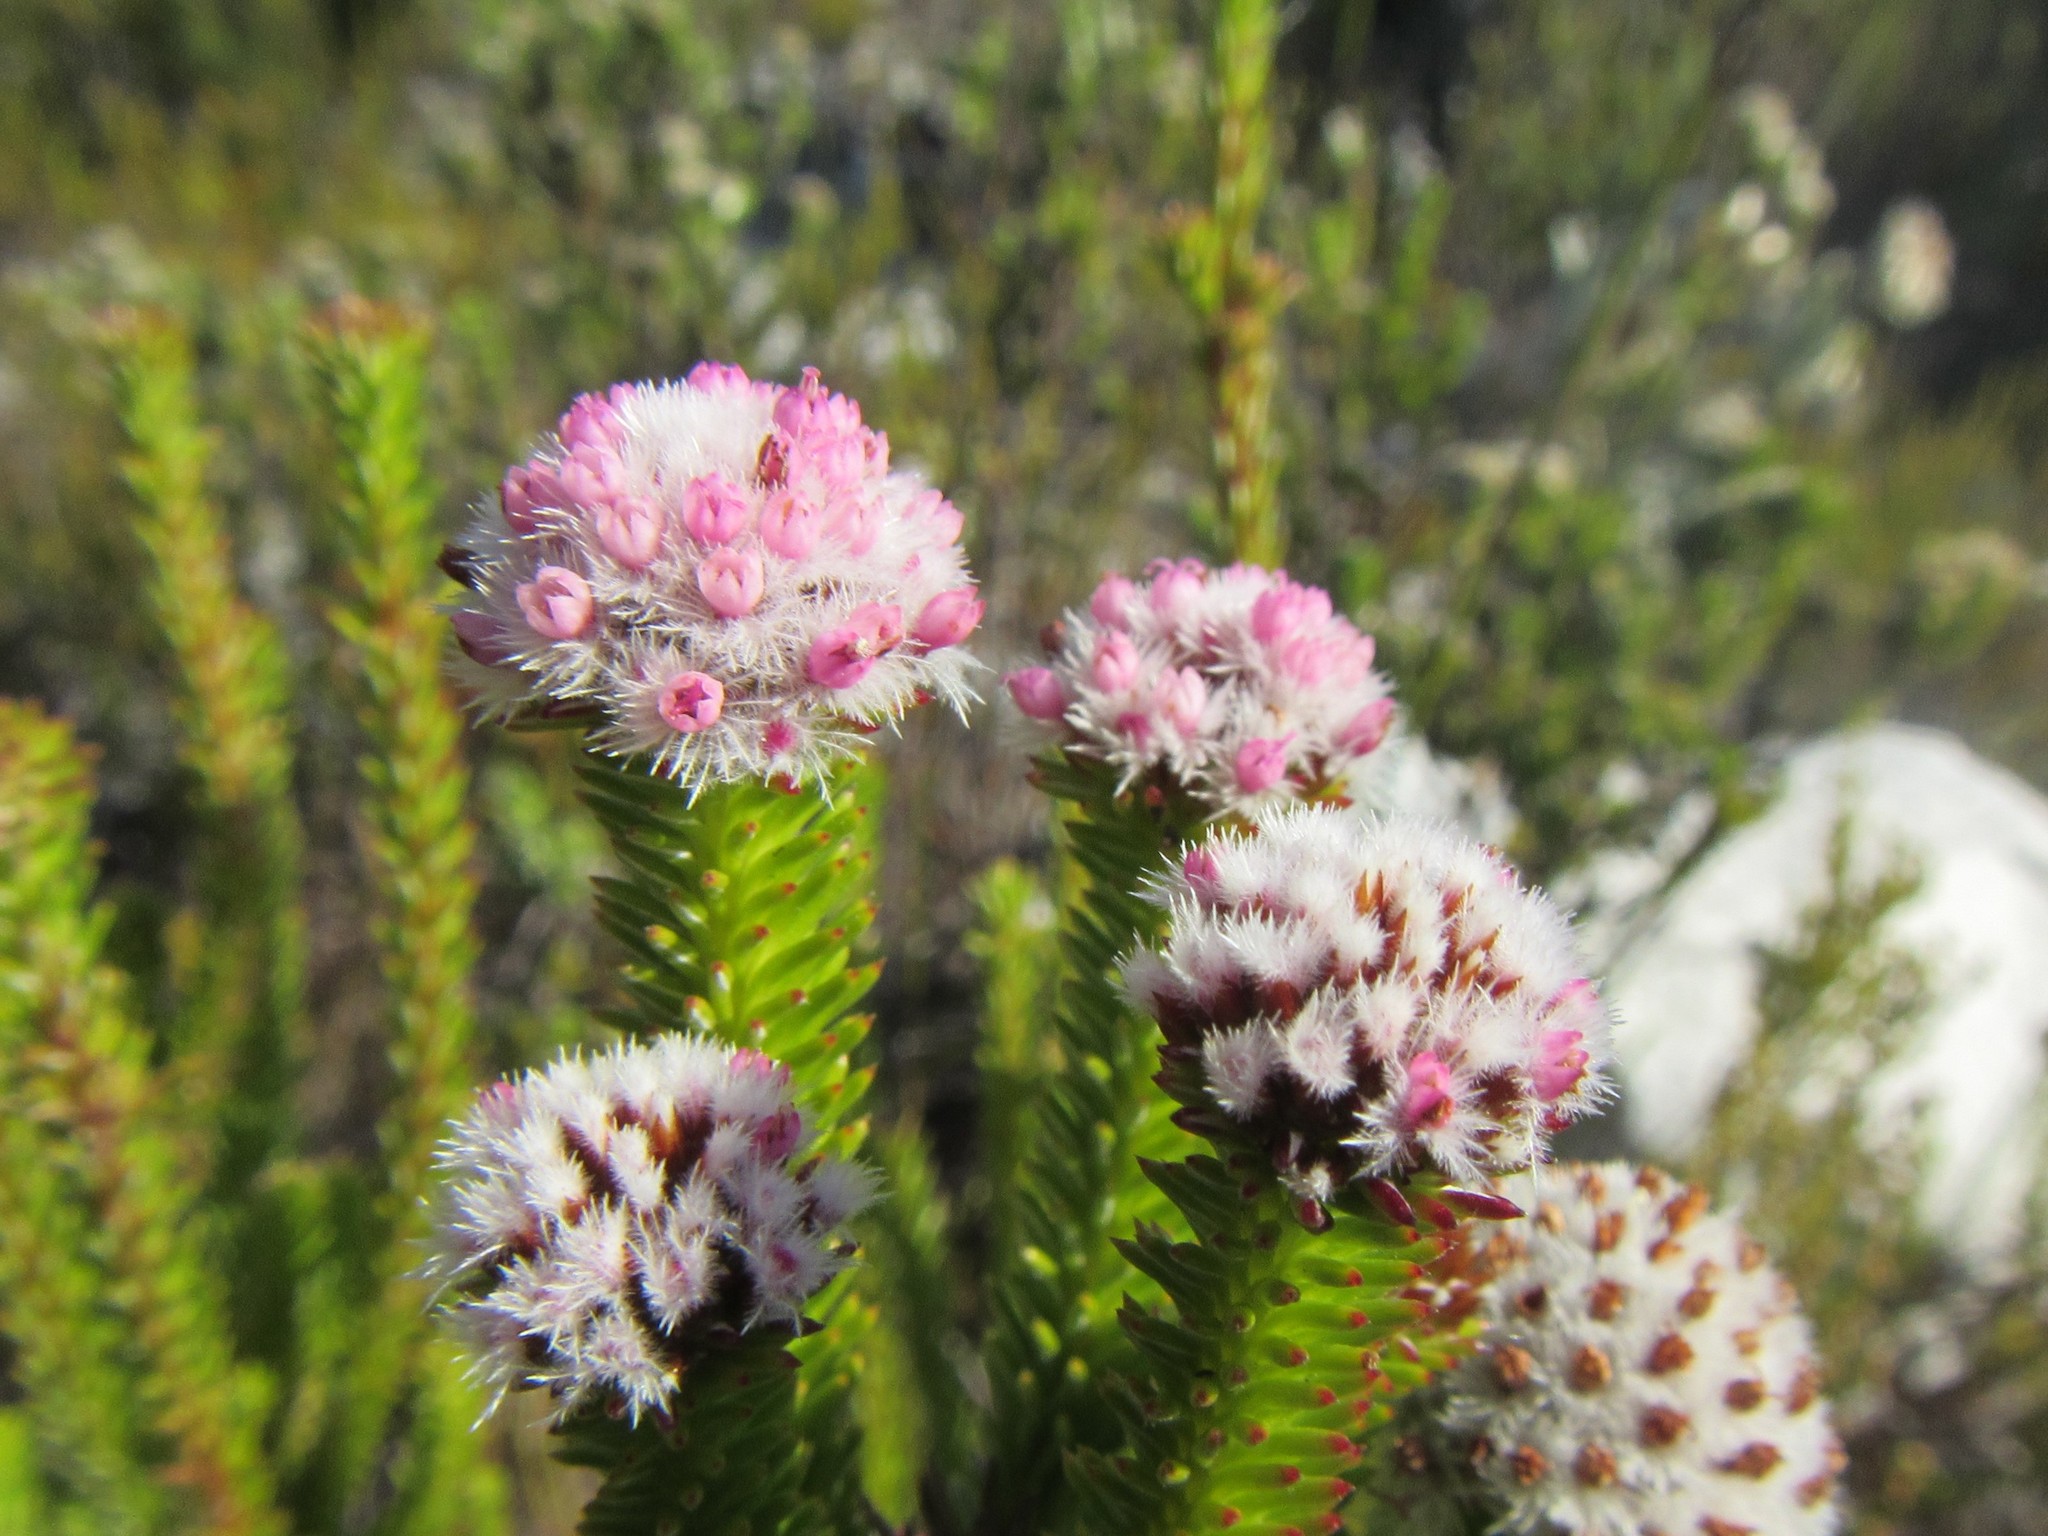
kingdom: Plantae
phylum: Tracheophyta
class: Magnoliopsida
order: Asterales
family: Asteraceae
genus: Stoebe
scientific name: Stoebe rosea
